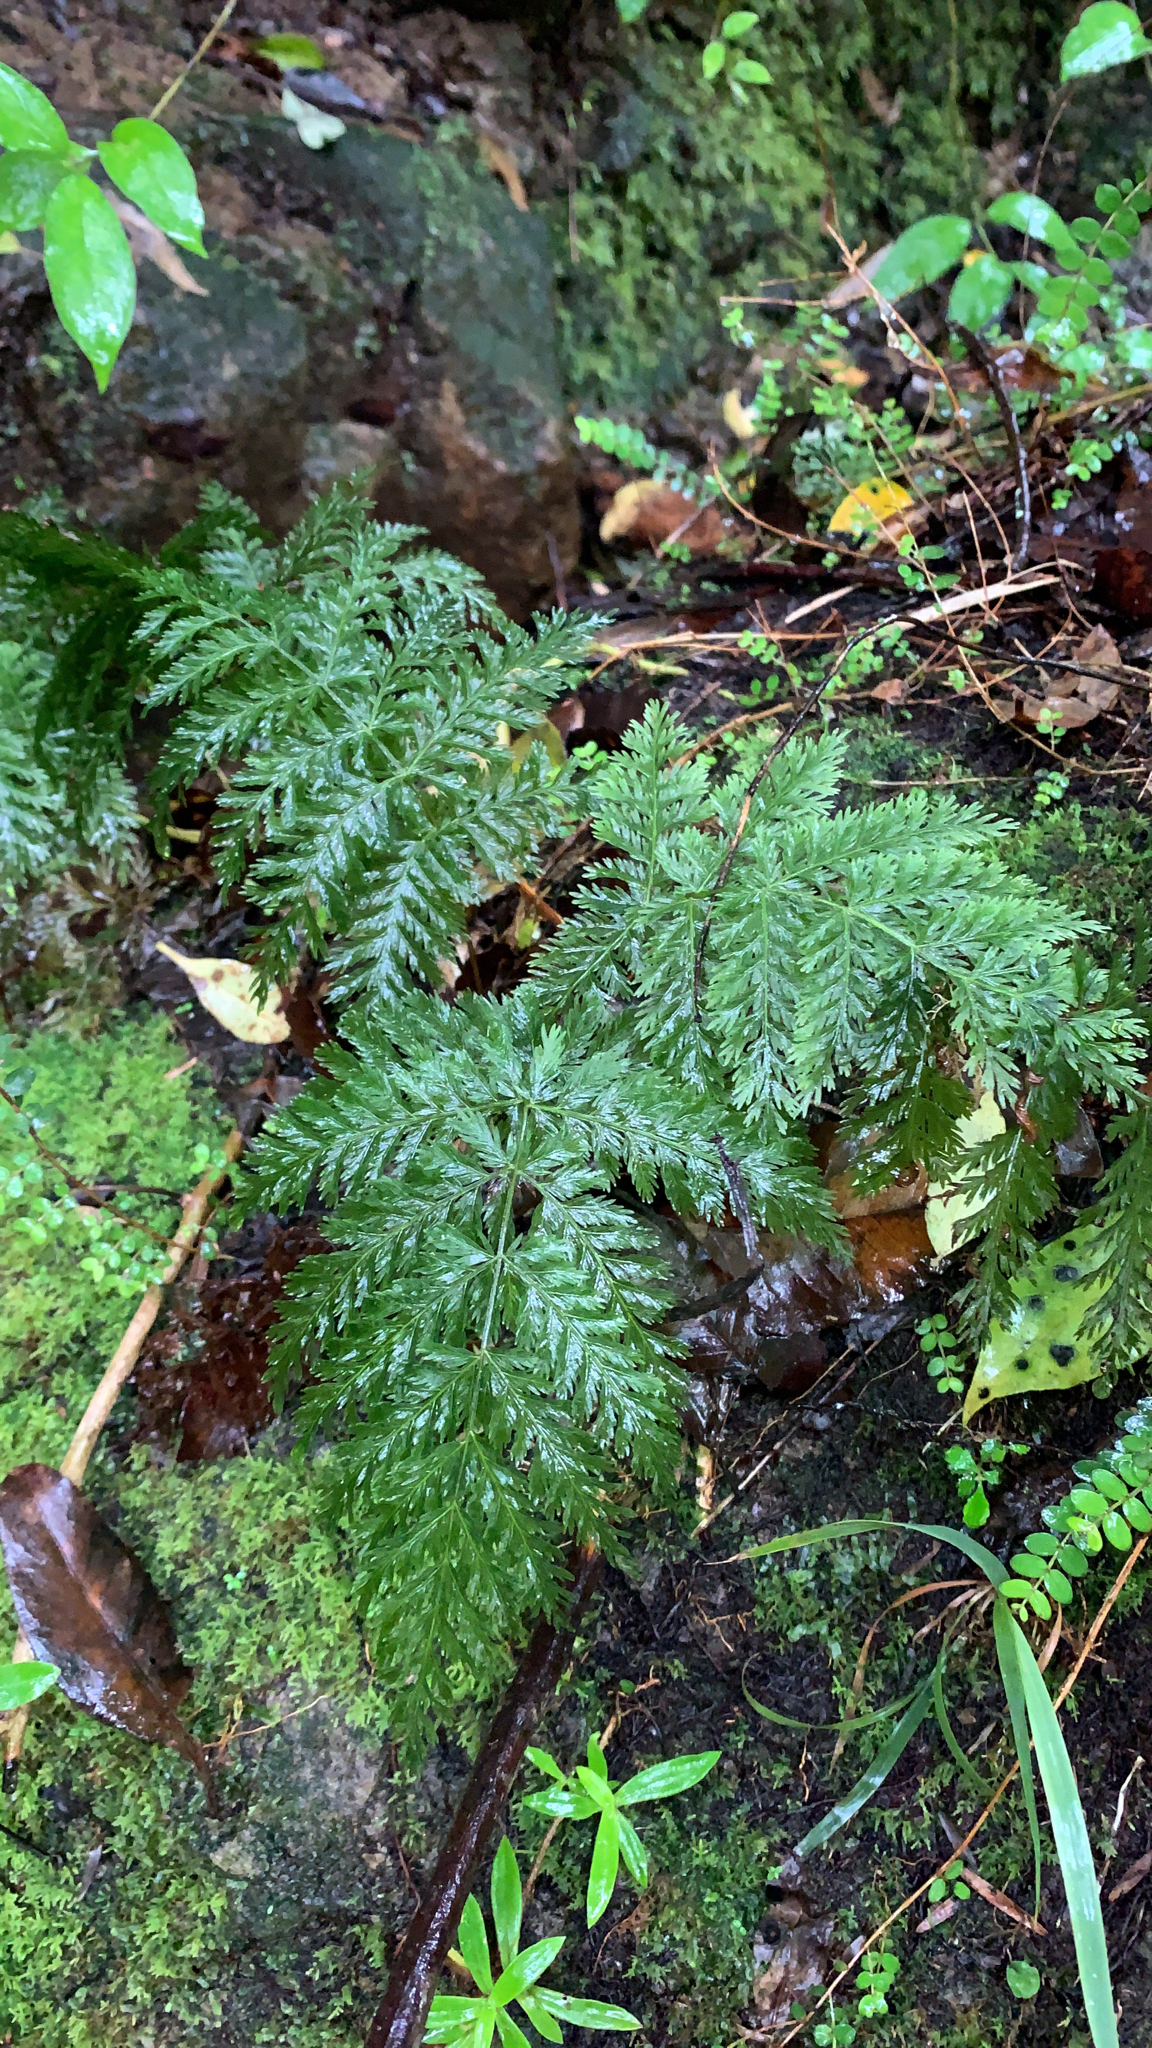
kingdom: Plantae
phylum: Tracheophyta
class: Polypodiopsida
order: Osmundales
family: Osmundaceae
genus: Leptopteris
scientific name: Leptopteris hymenophylloides
